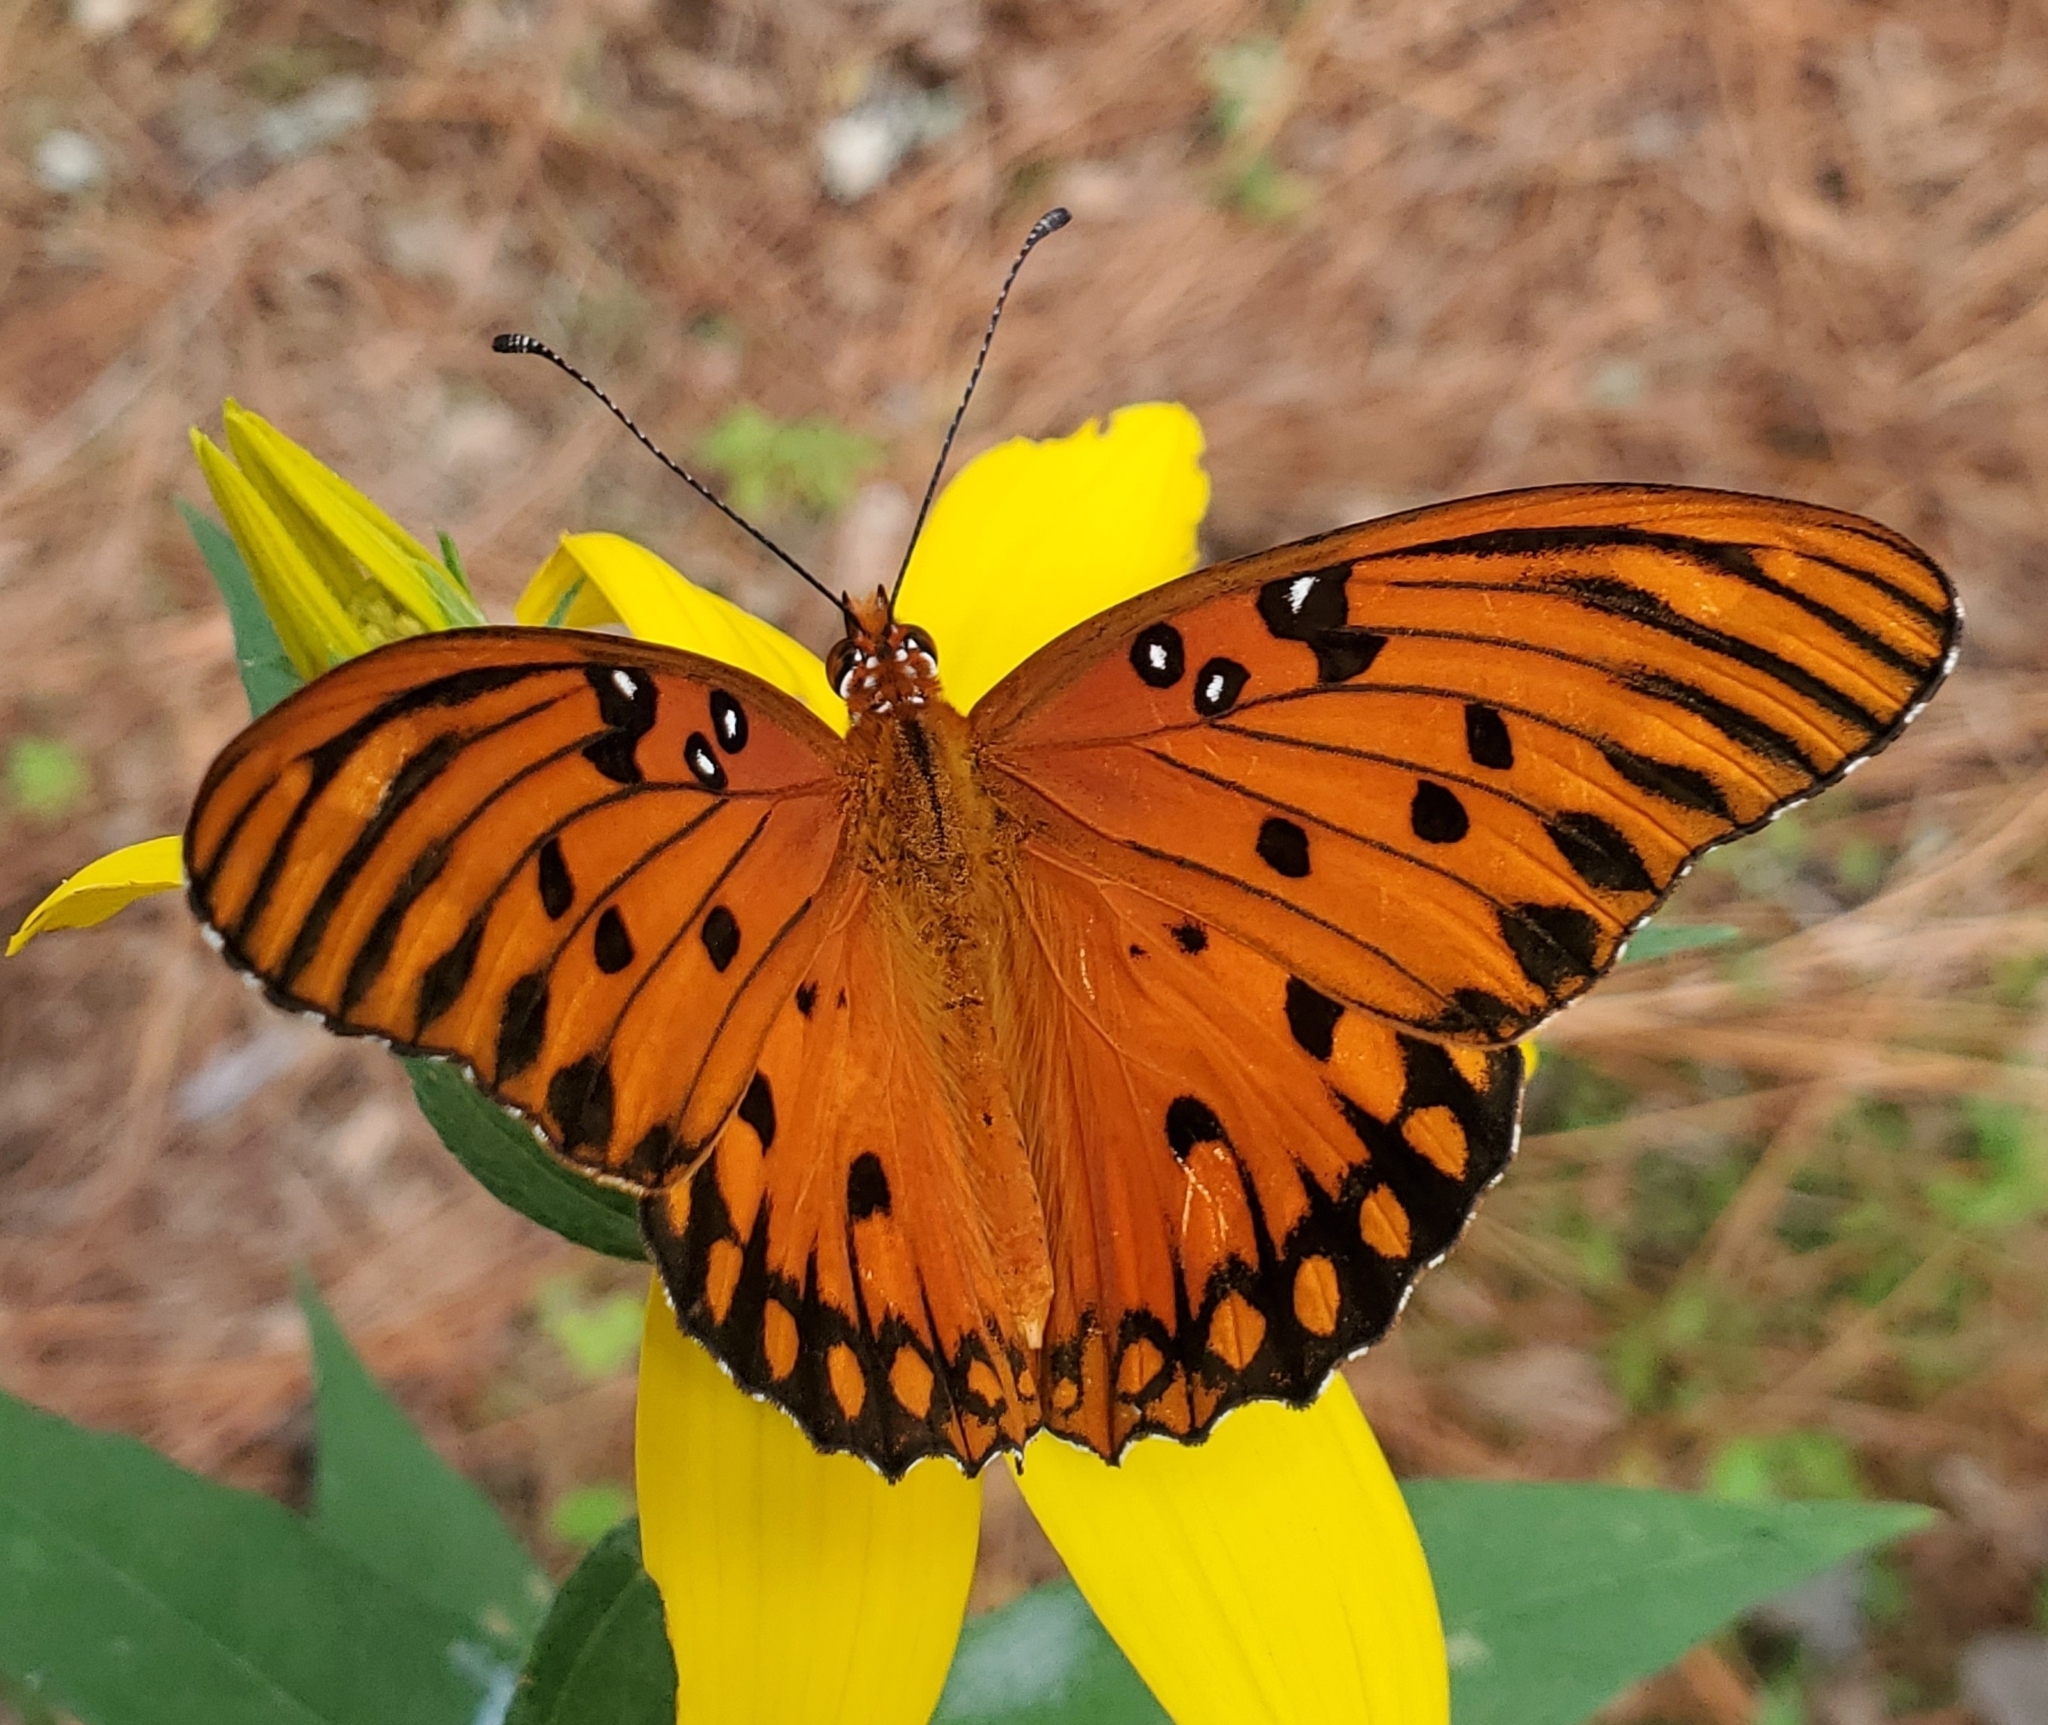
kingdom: Animalia
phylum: Arthropoda
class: Insecta
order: Lepidoptera
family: Nymphalidae
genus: Dione
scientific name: Dione vanillae
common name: Gulf fritillary
